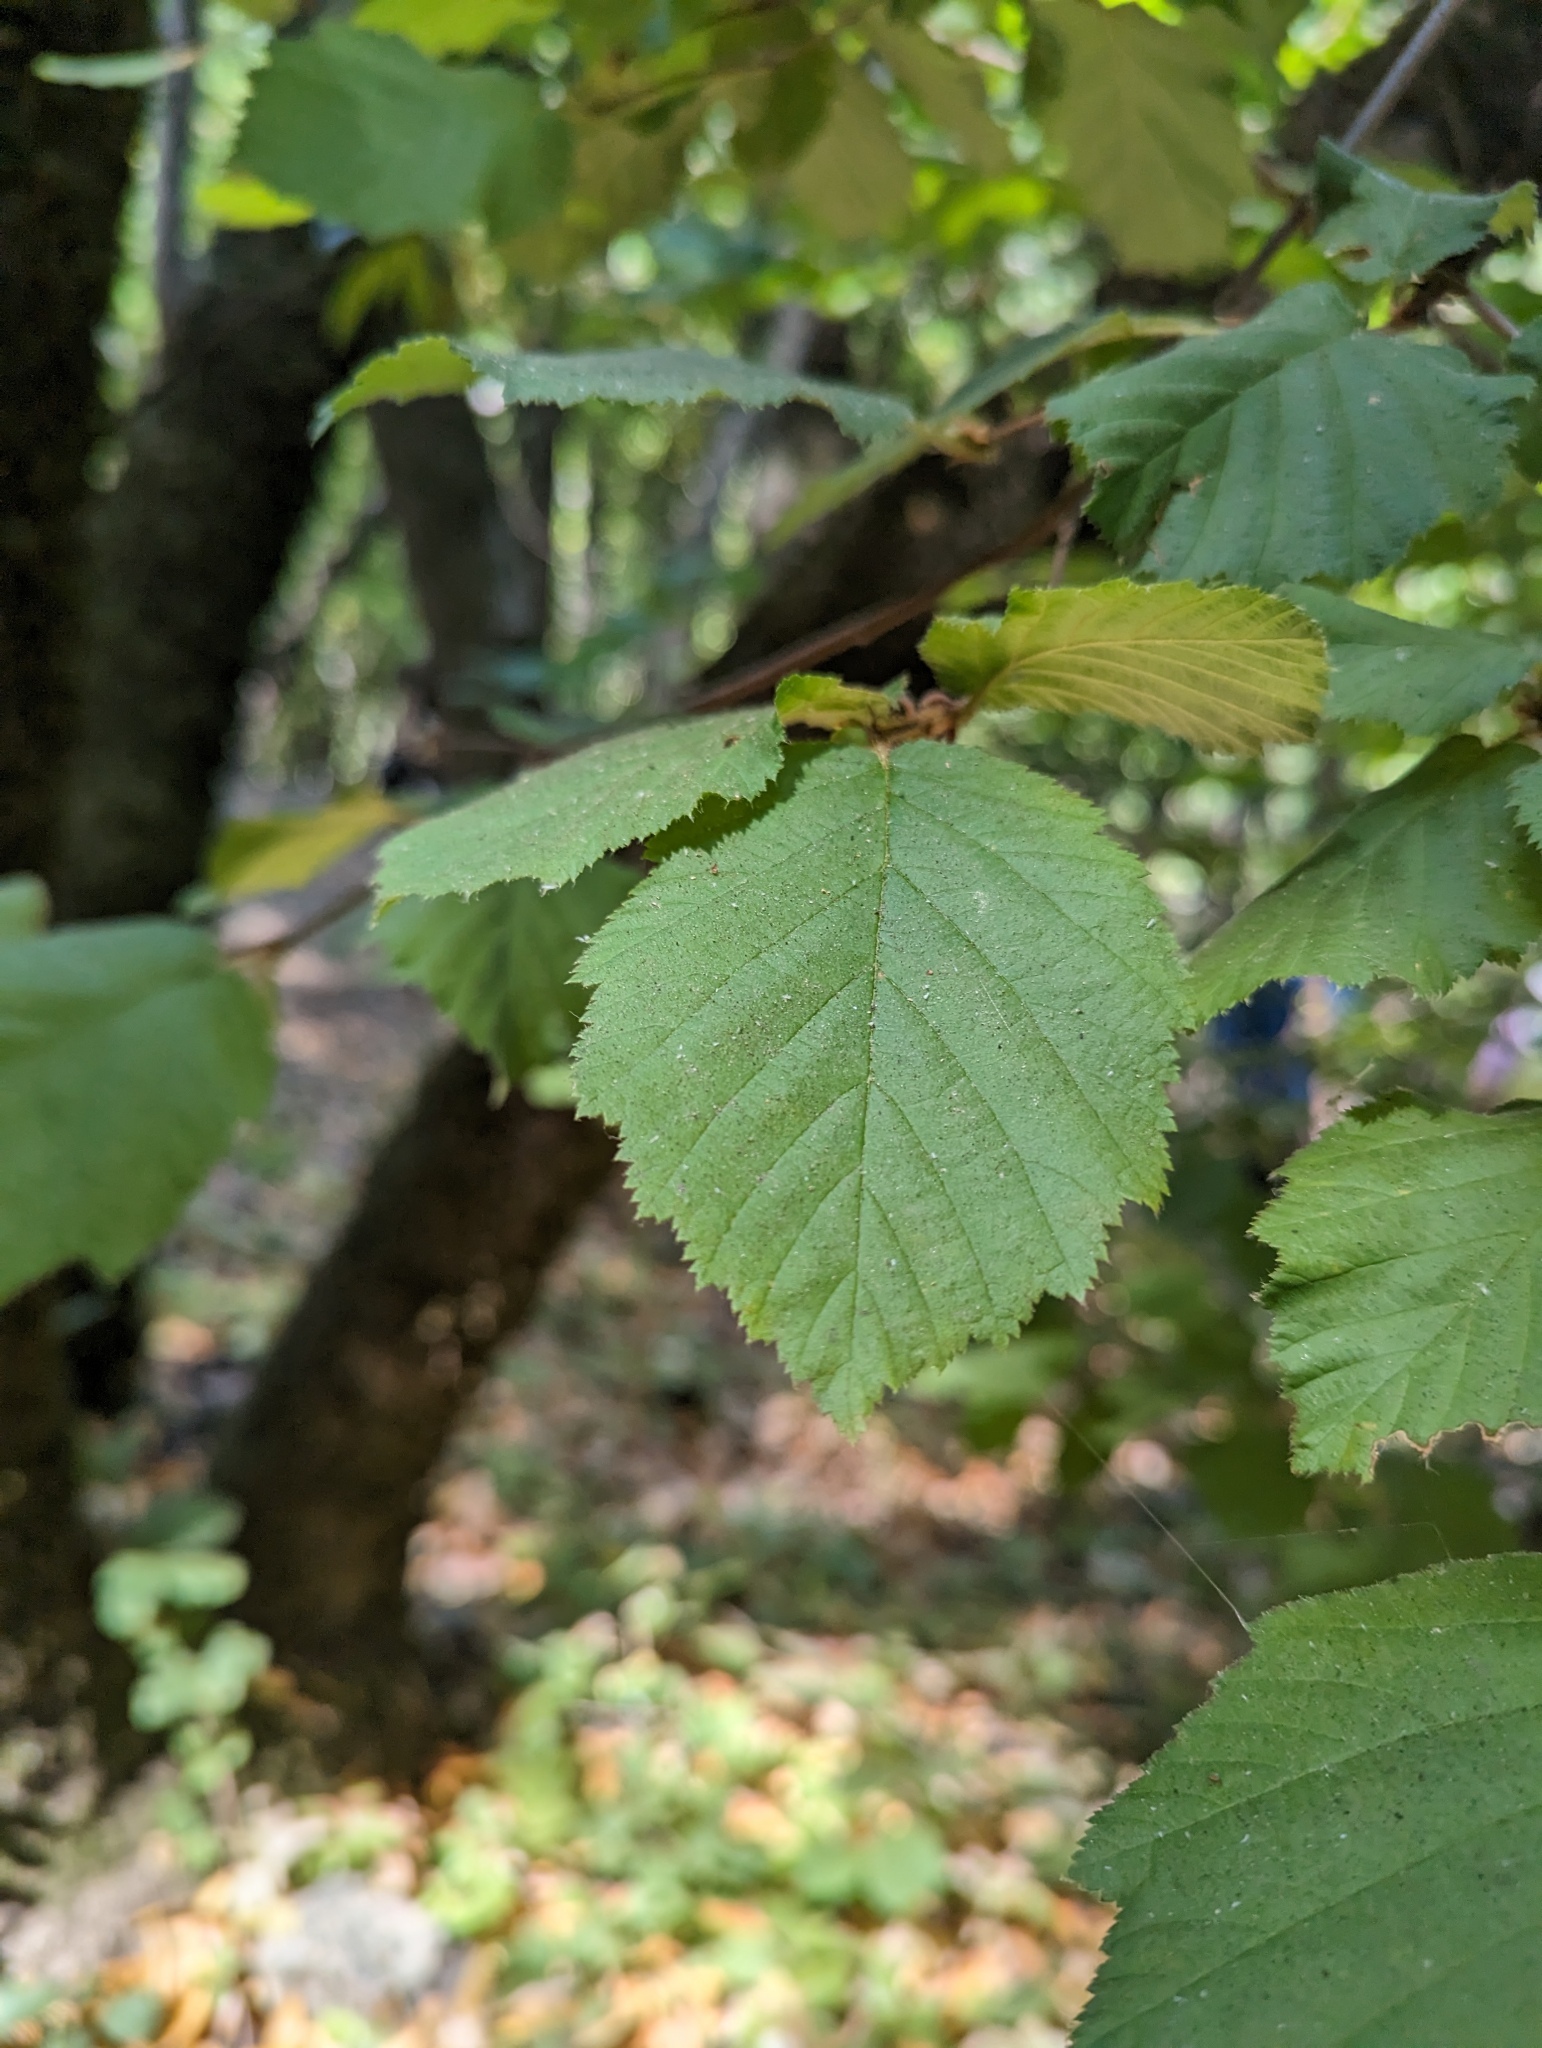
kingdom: Plantae
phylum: Tracheophyta
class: Magnoliopsida
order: Fagales
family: Betulaceae
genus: Corylus
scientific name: Corylus cornuta
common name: Beaked hazel
